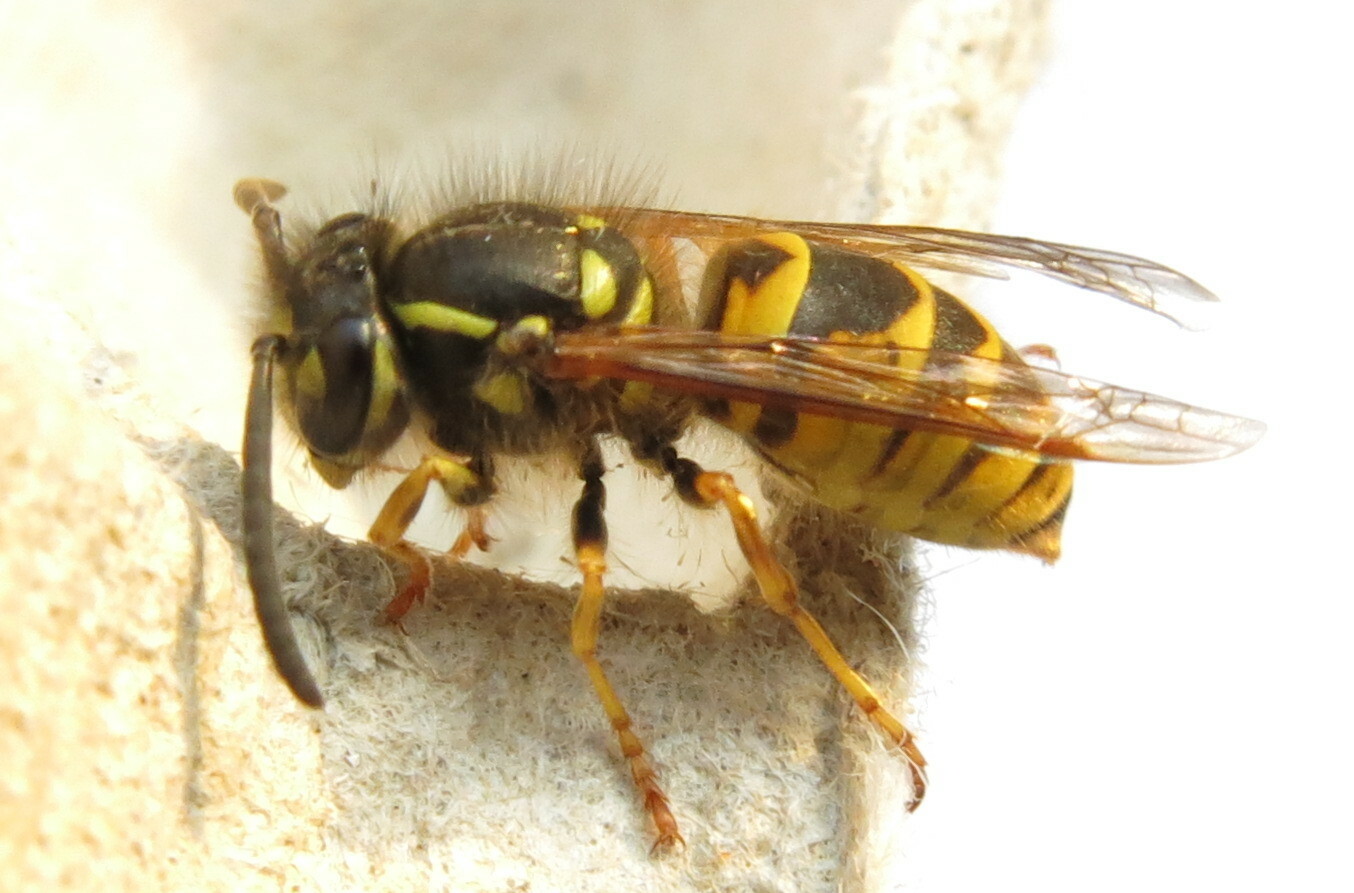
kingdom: Animalia
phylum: Arthropoda
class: Insecta
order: Hymenoptera
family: Vespidae
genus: Vespula
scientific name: Vespula vulgaris
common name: Common wasp
